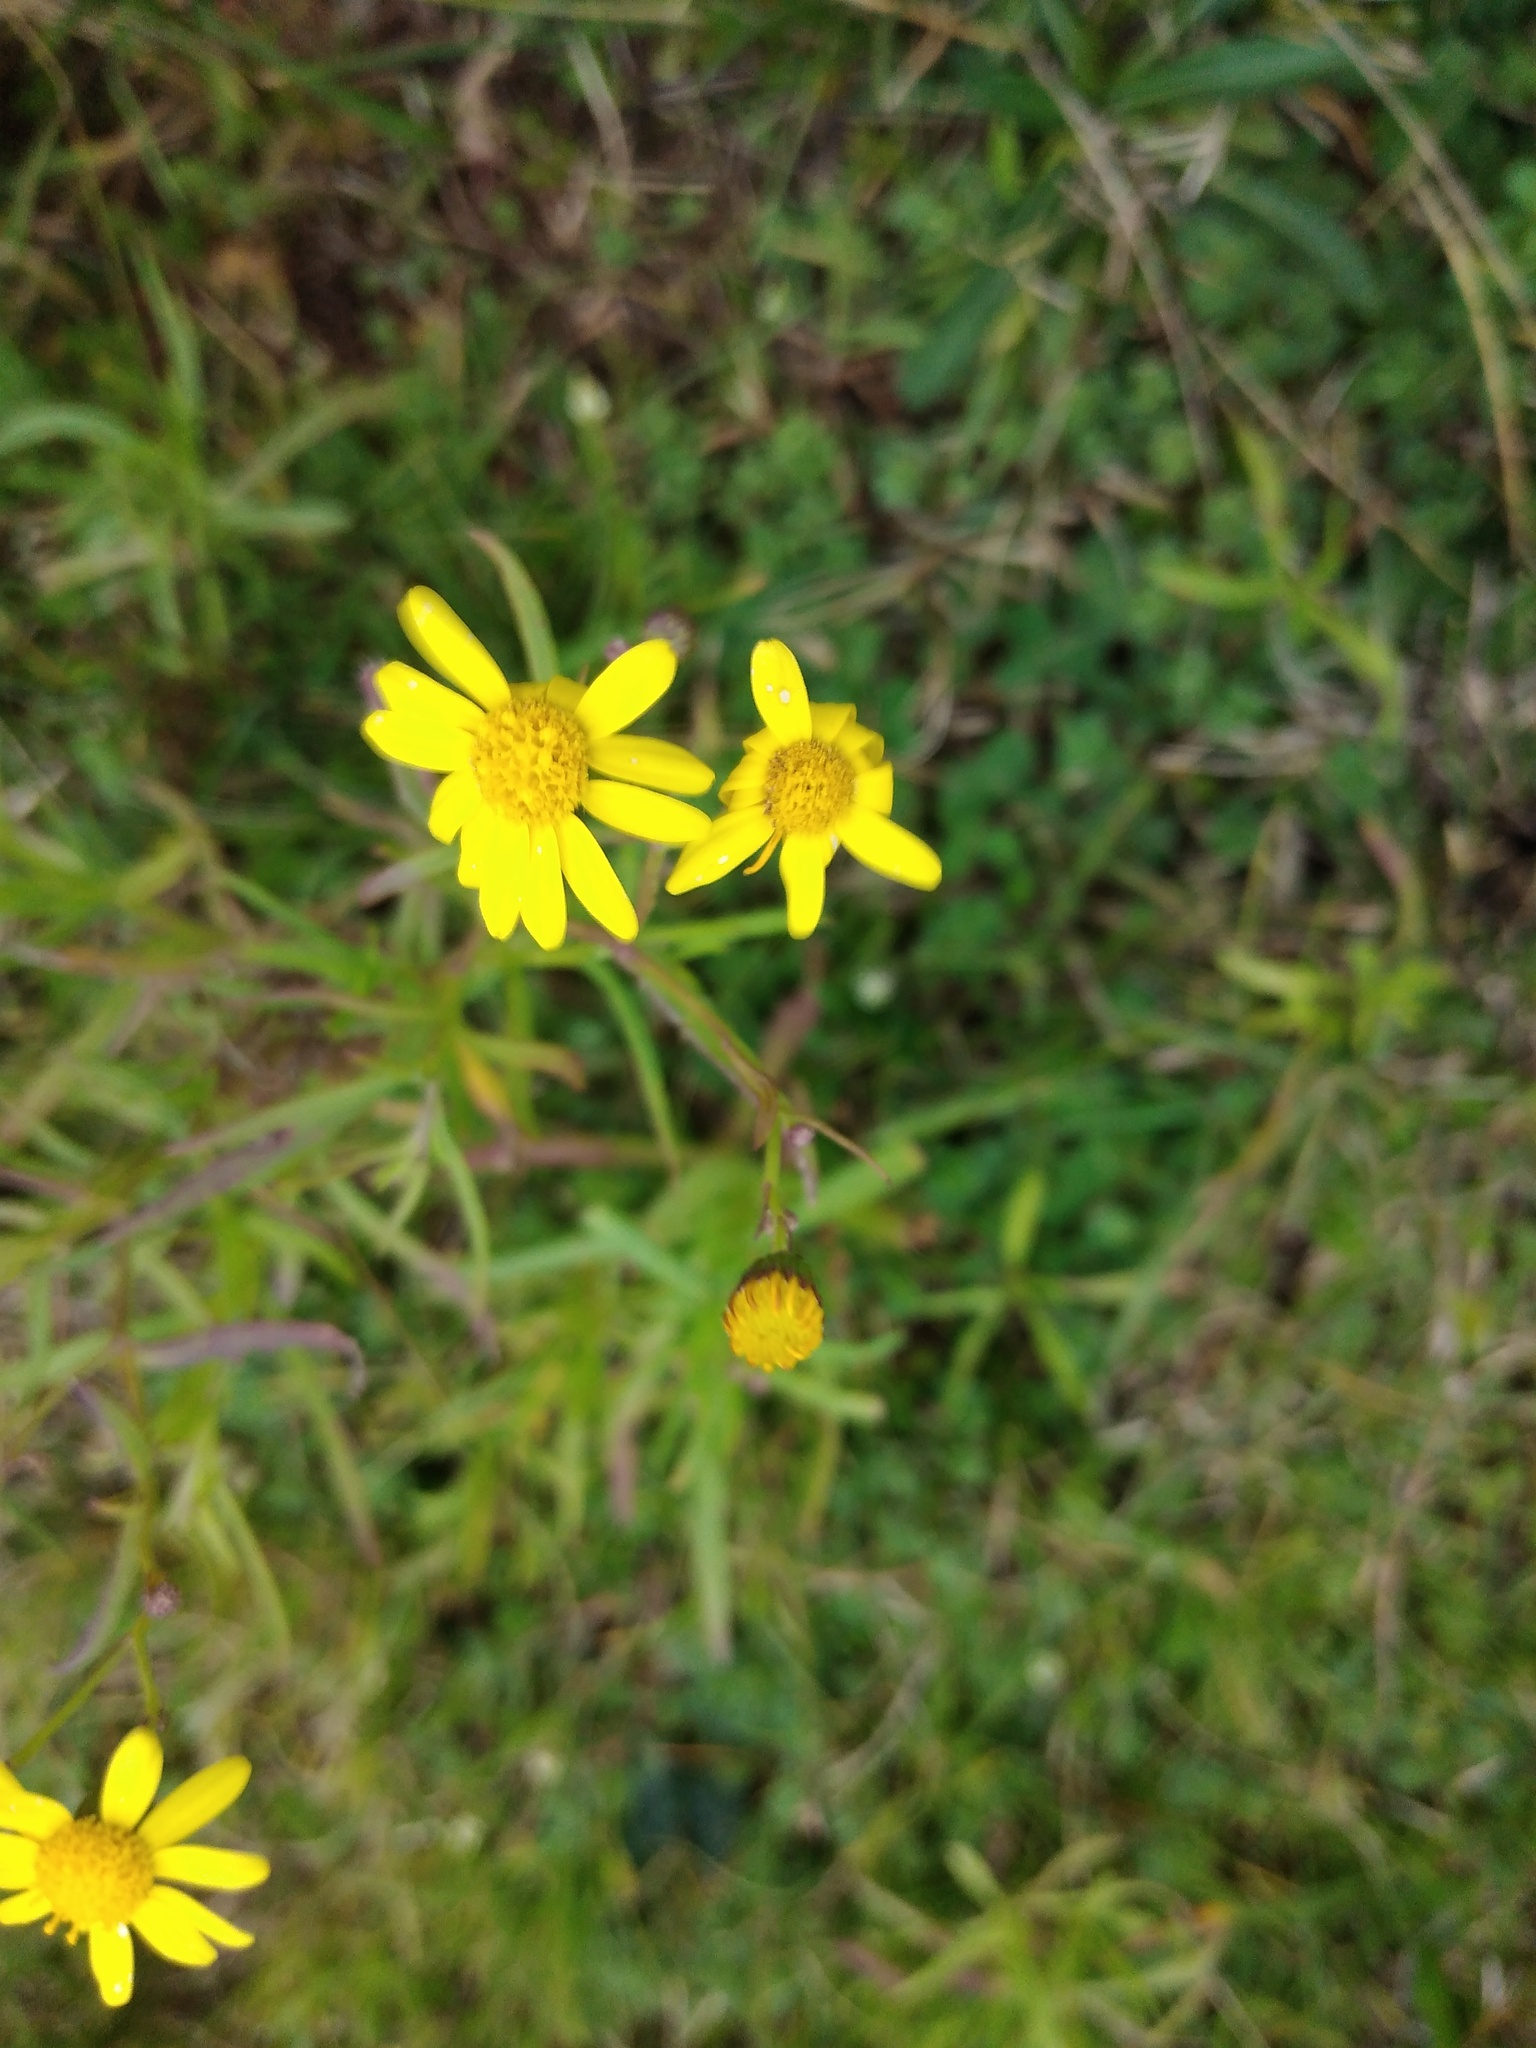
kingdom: Plantae
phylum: Tracheophyta
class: Magnoliopsida
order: Asterales
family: Asteraceae
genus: Senecio
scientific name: Senecio madagascariensis
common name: Madagascar ragwort
